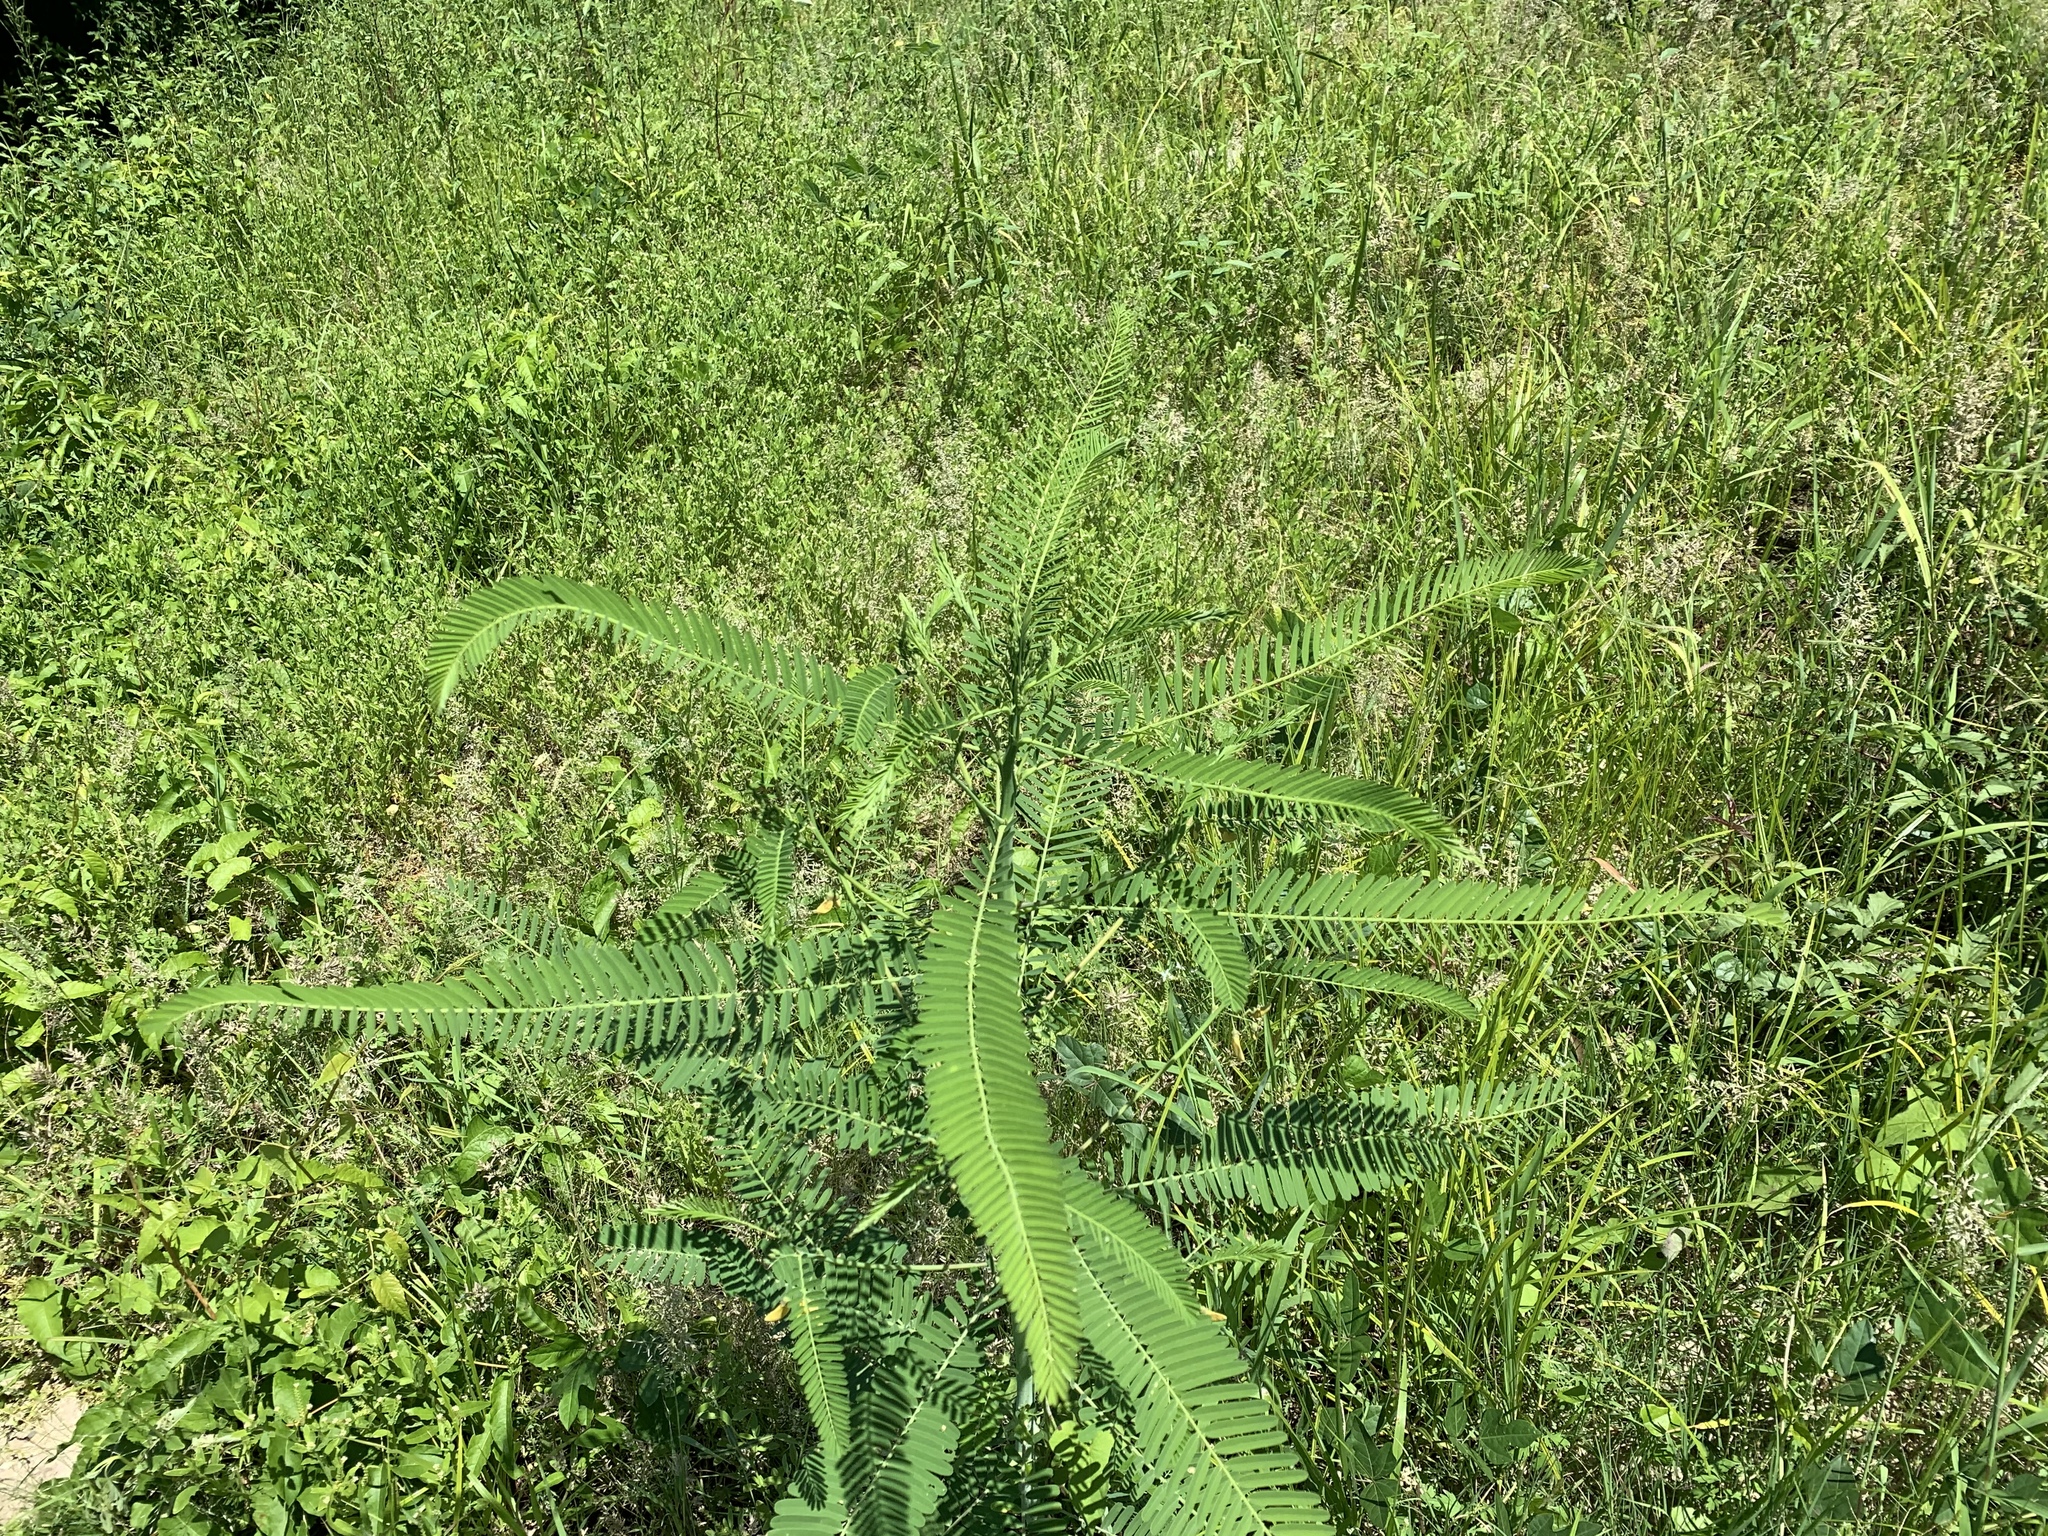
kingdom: Plantae
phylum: Tracheophyta
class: Magnoliopsida
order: Fabales
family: Fabaceae
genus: Sesbania
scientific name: Sesbania herbacea
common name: Bigpod sesbania
